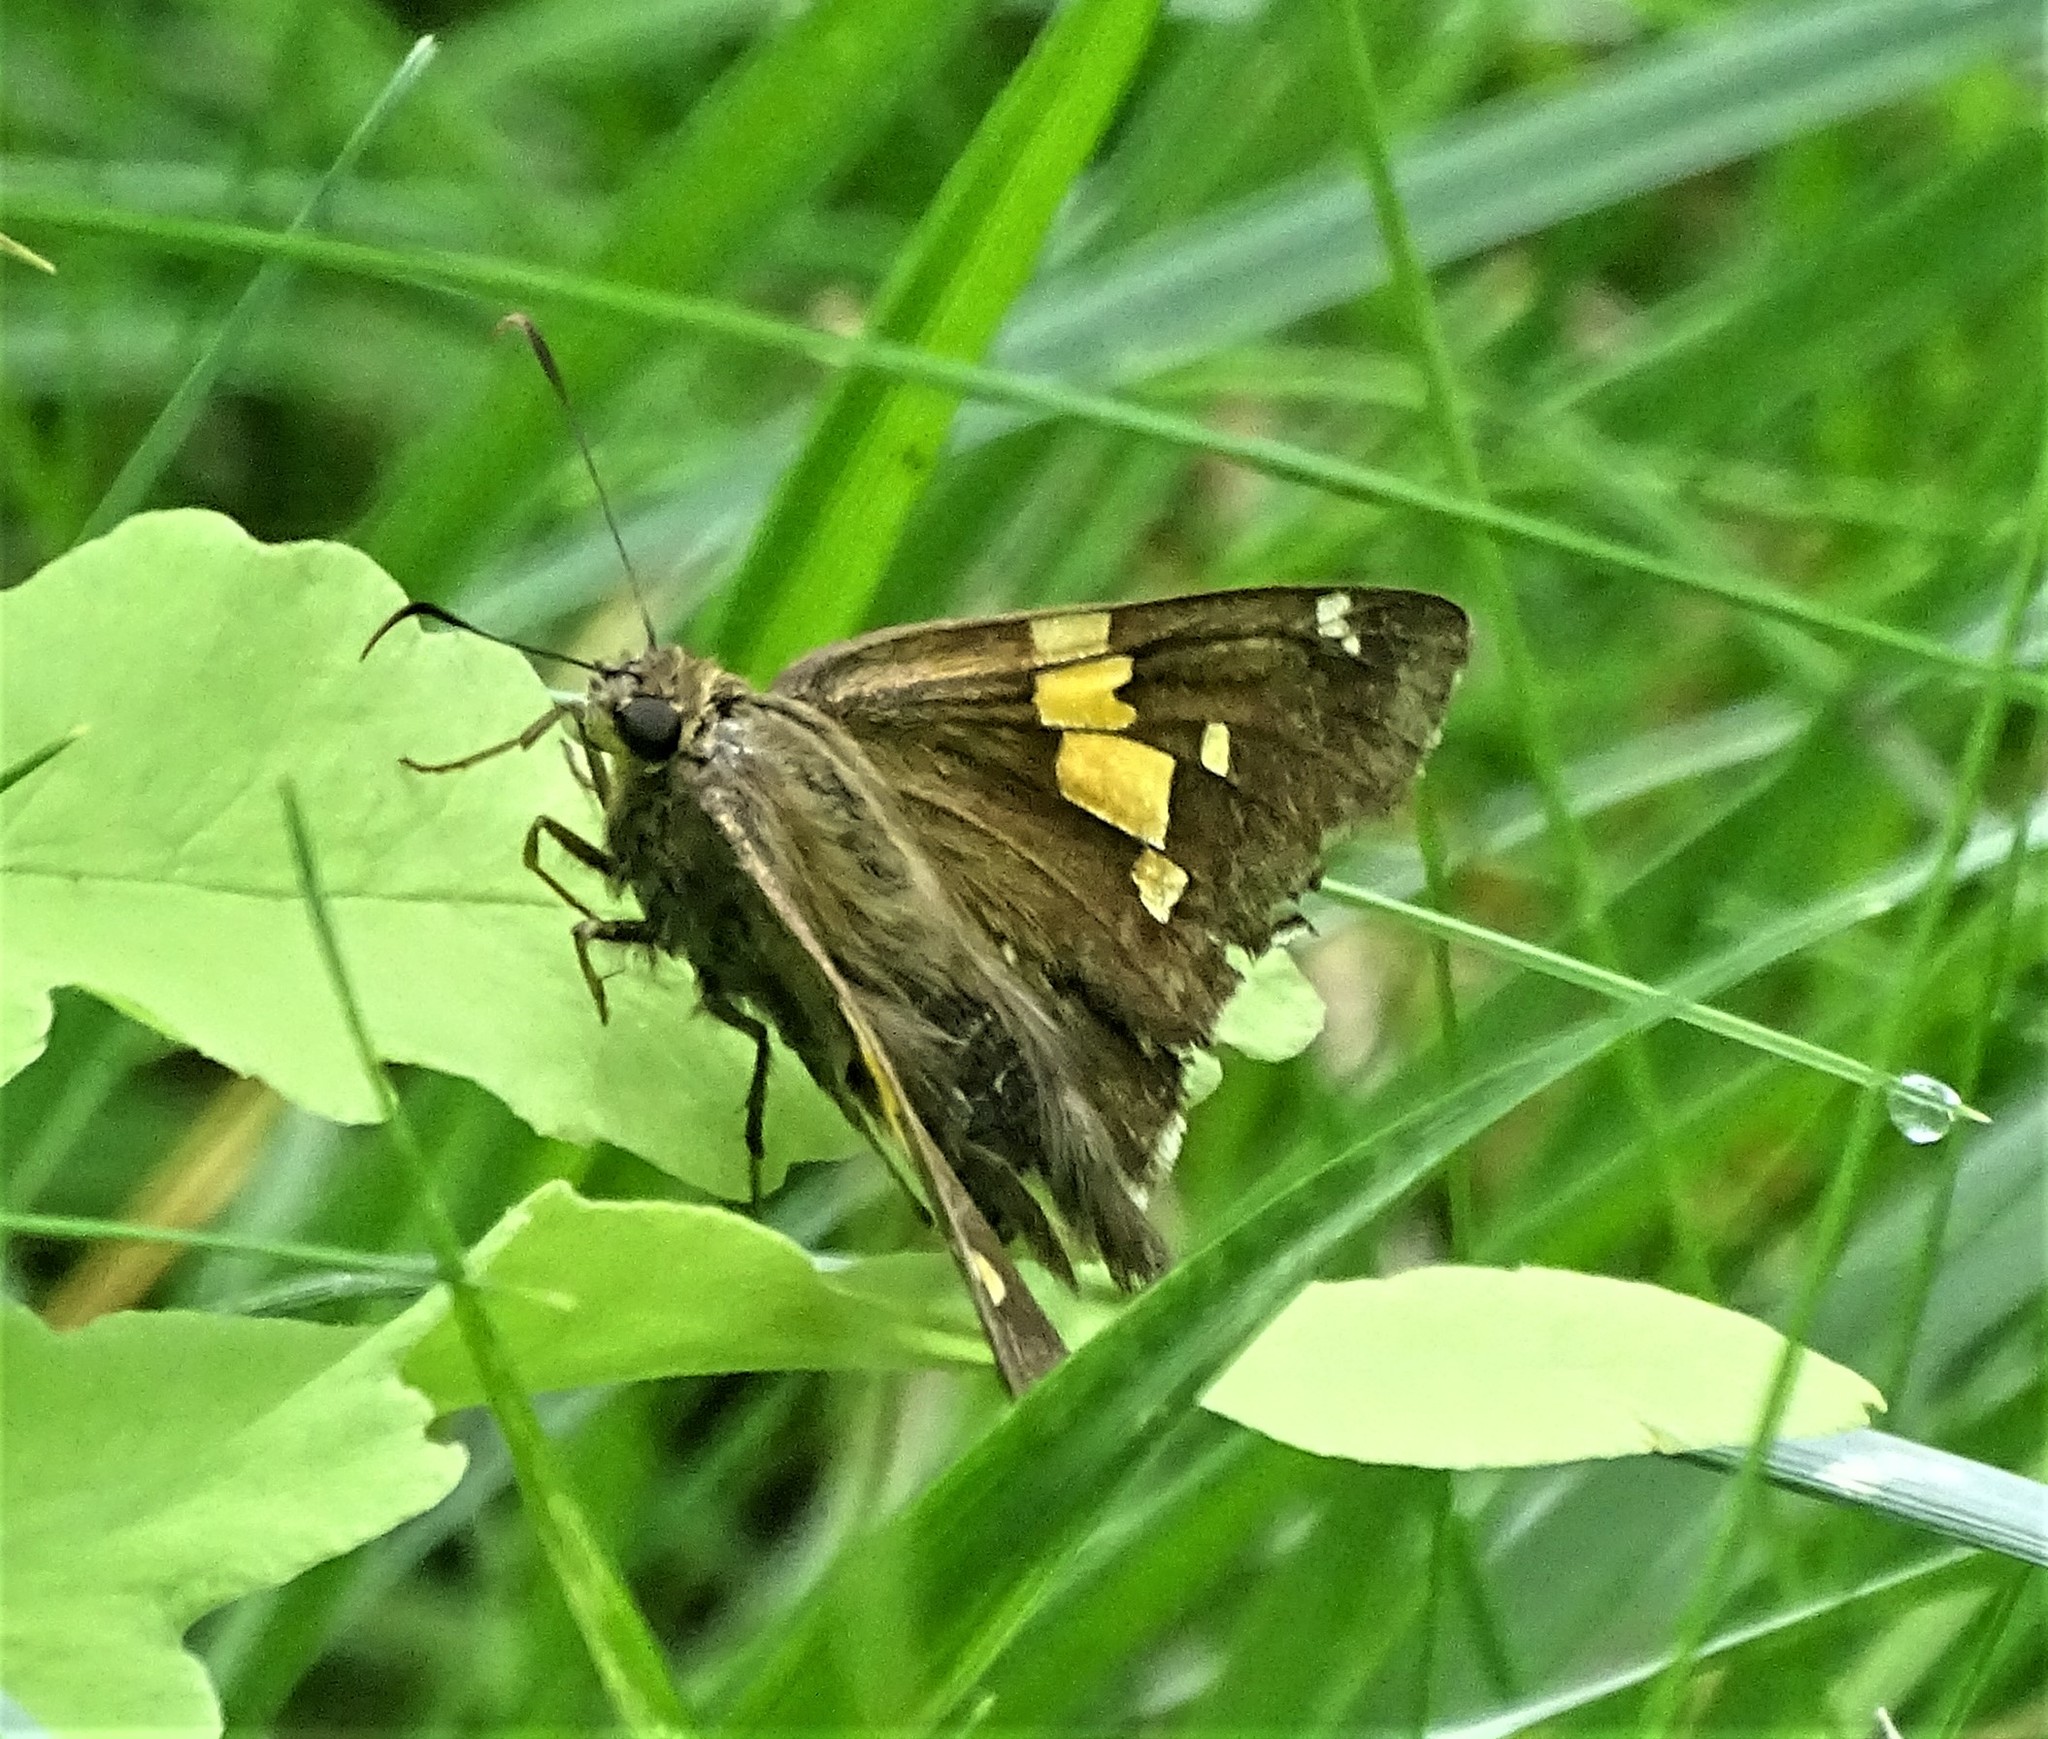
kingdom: Animalia
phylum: Arthropoda
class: Insecta
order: Lepidoptera
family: Hesperiidae
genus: Epargyreus
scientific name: Epargyreus clarus
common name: Silver-spotted skipper
